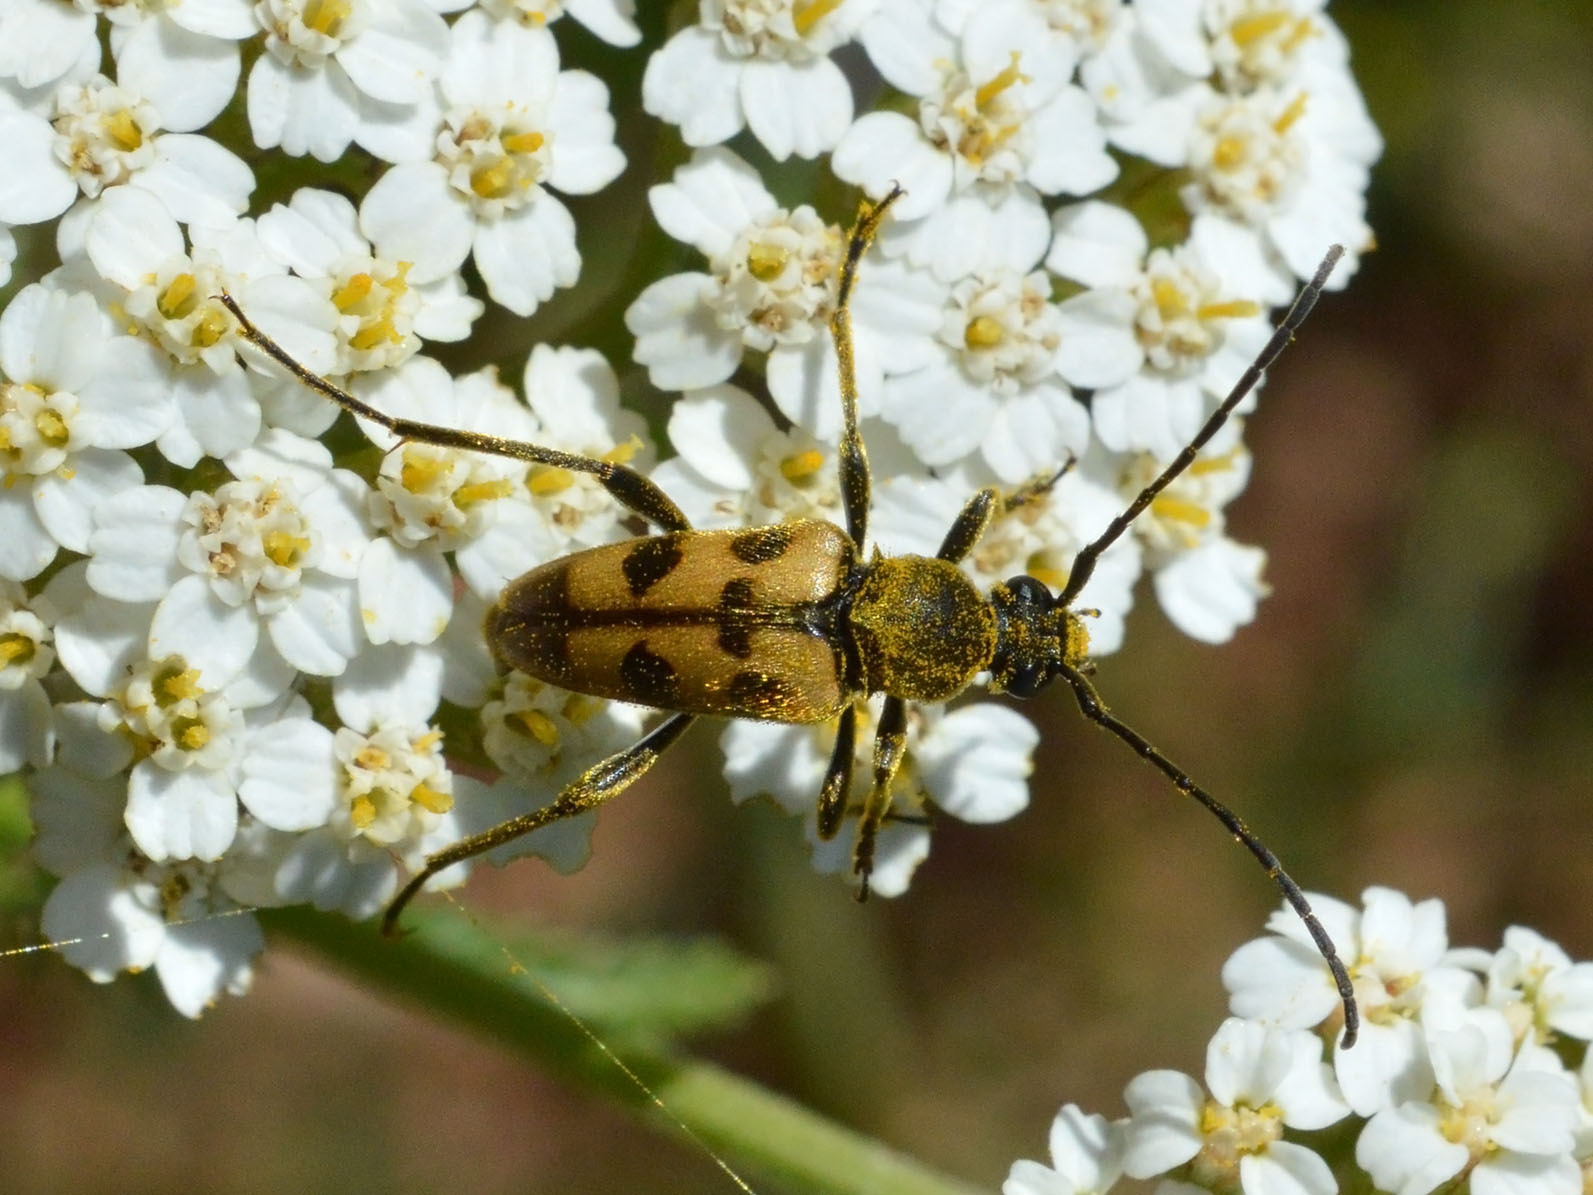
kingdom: Animalia
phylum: Arthropoda
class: Insecta
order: Coleoptera
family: Cerambycidae
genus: Pachytodes
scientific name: Pachytodes
